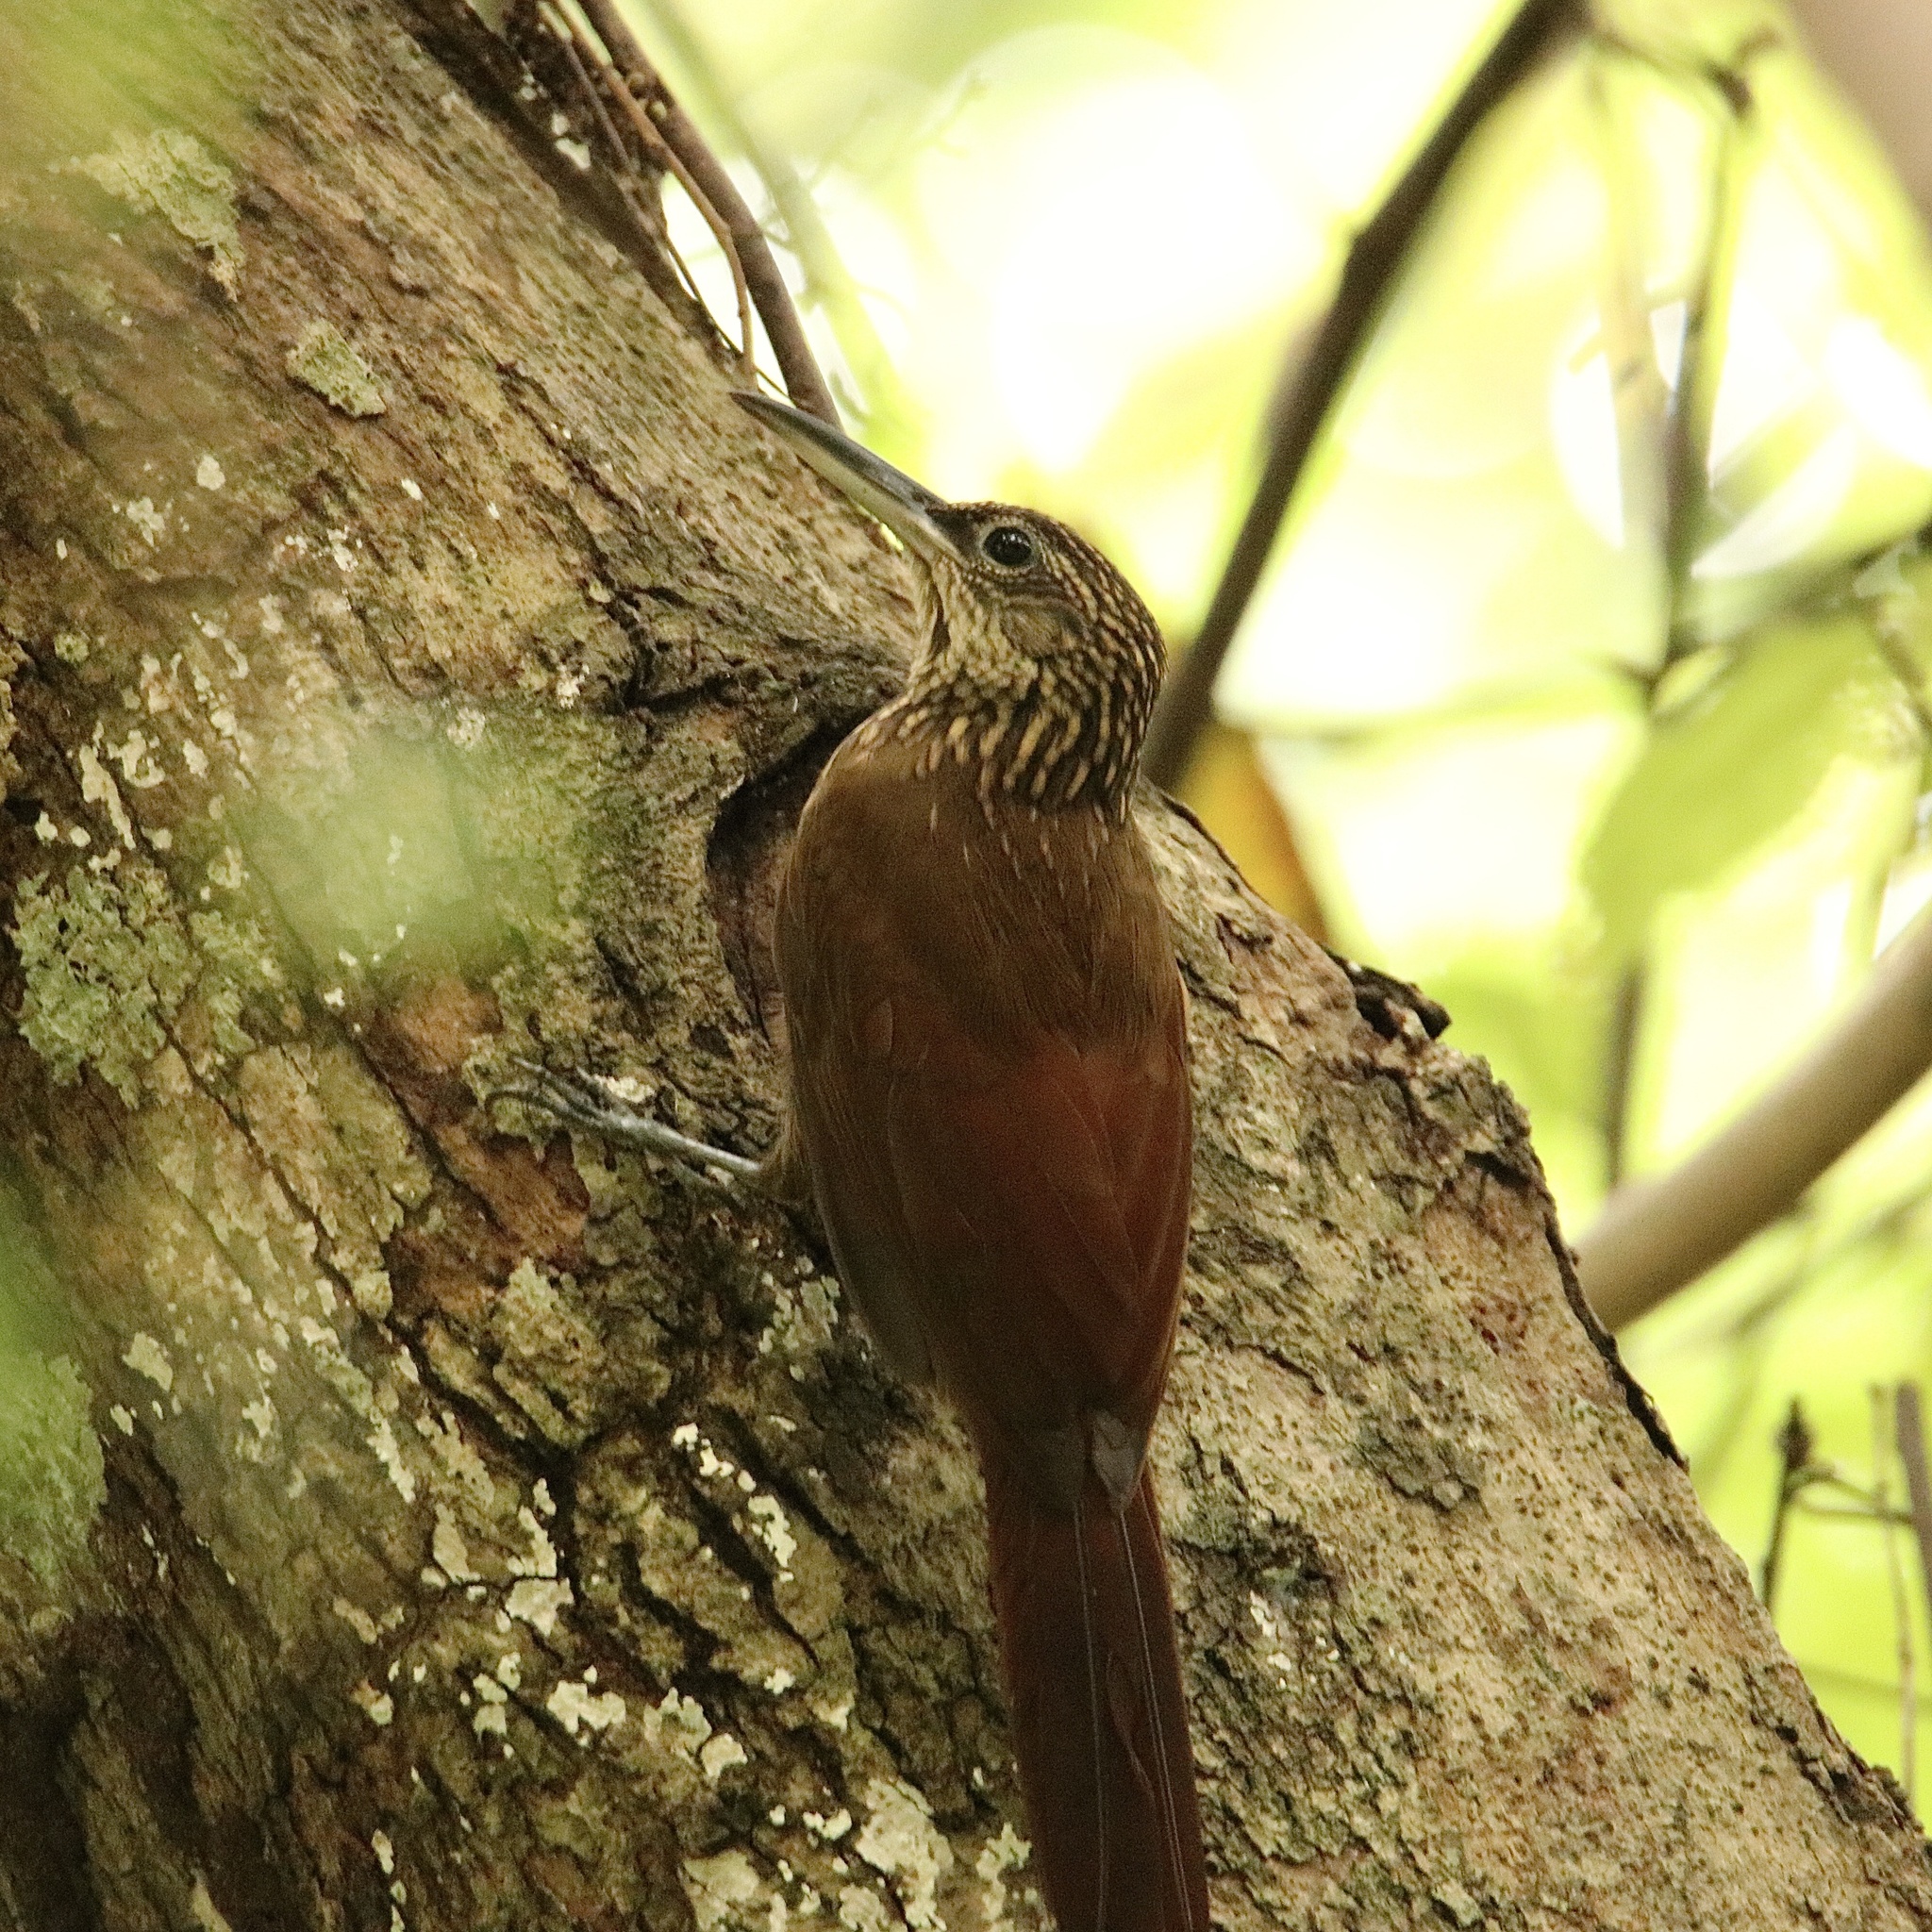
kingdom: Animalia
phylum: Chordata
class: Aves
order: Passeriformes
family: Furnariidae
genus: Xiphorhynchus
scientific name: Xiphorhynchus susurrans
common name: Cocoa woodcreeper
